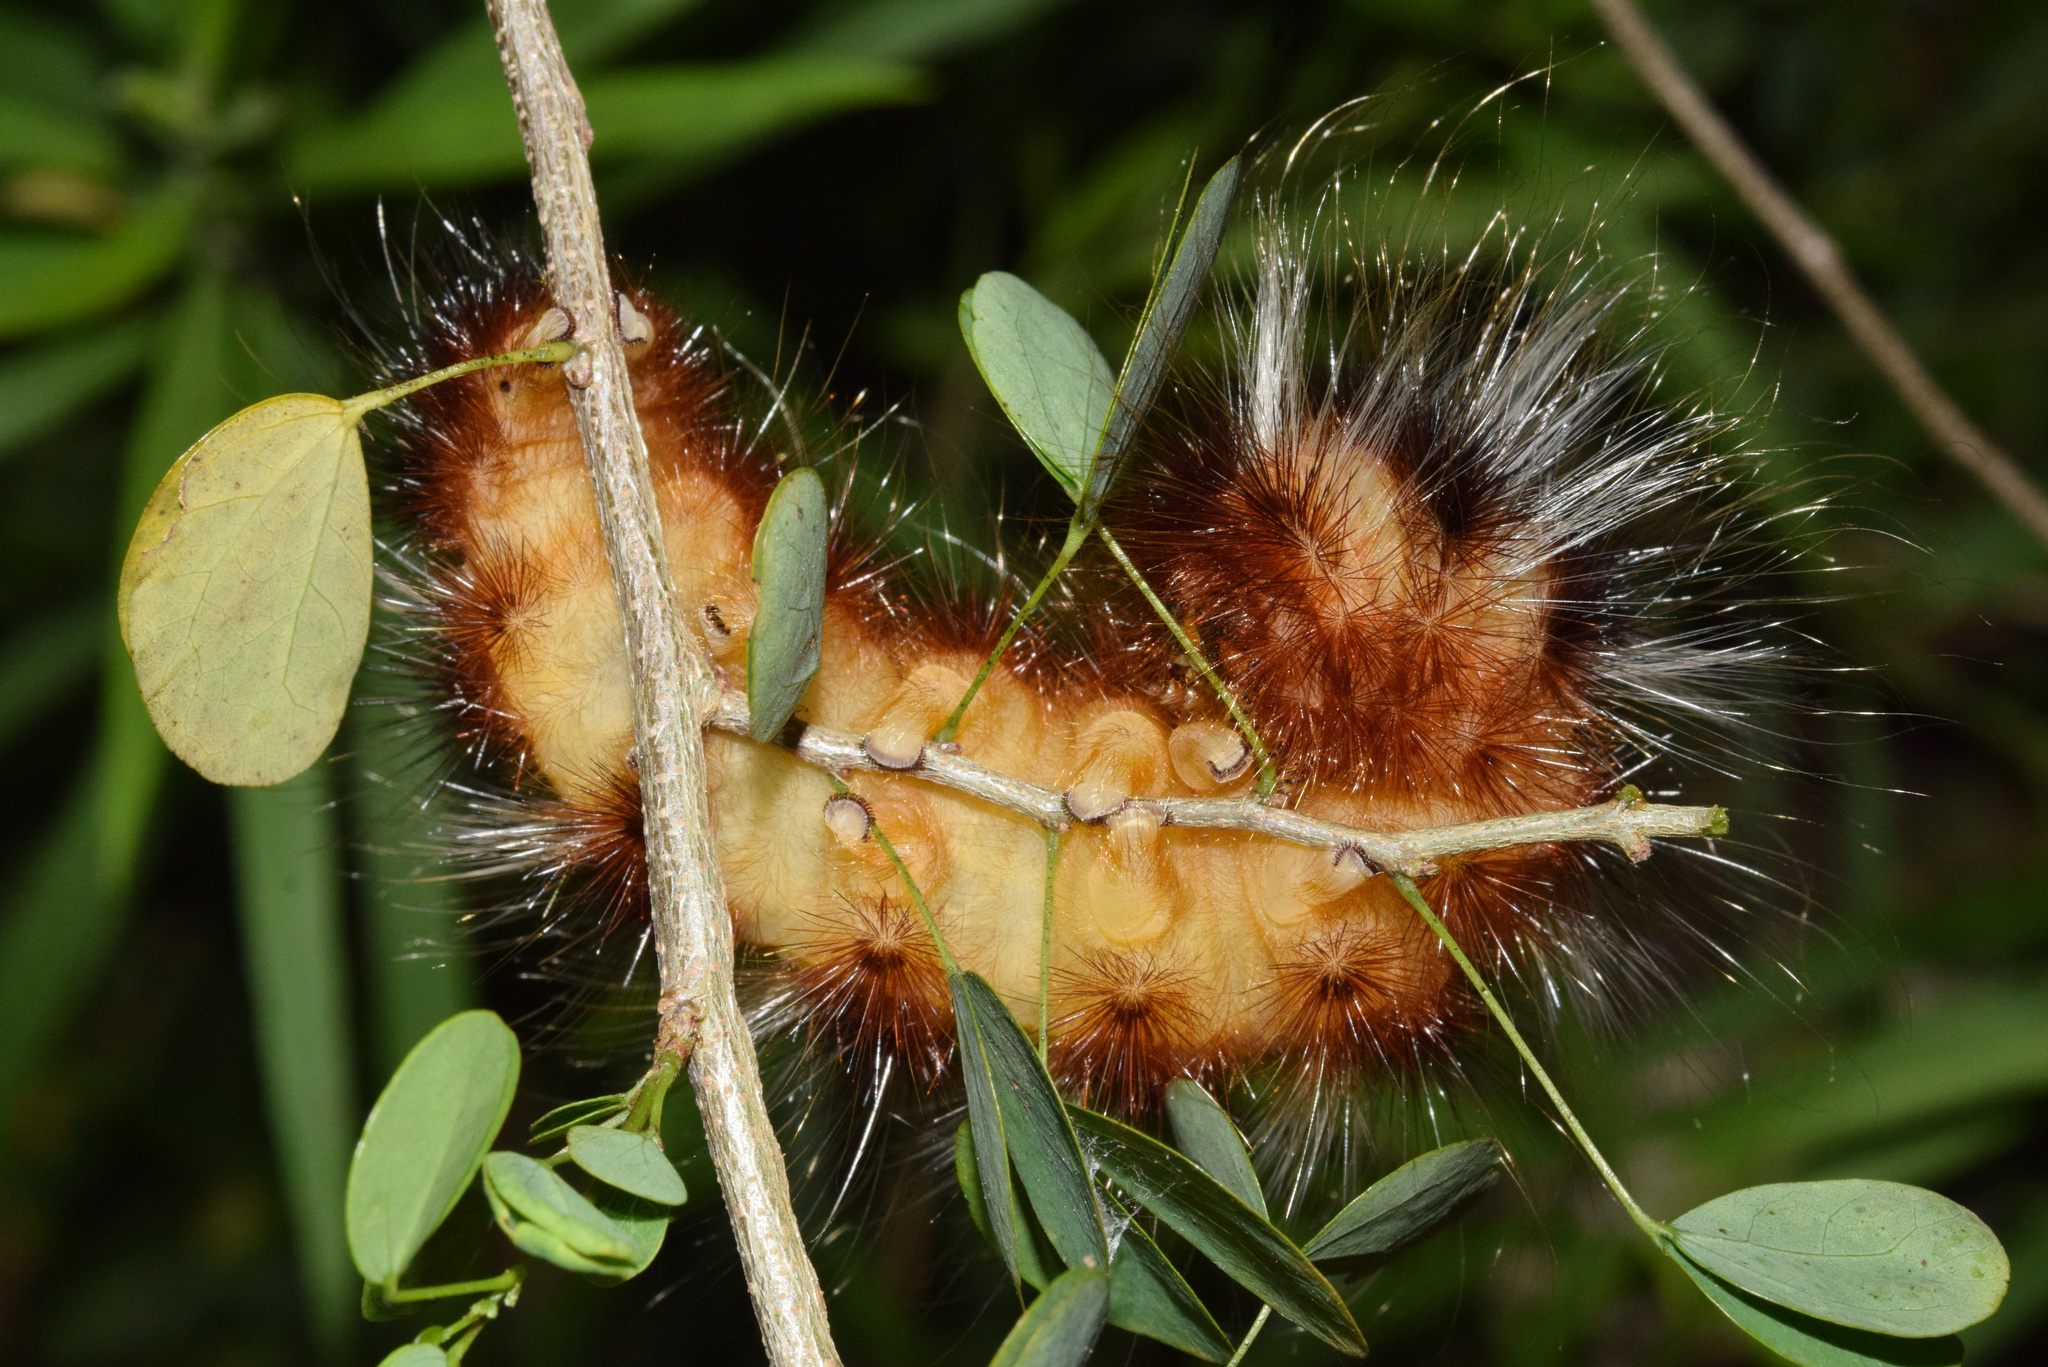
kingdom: Animalia
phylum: Arthropoda
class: Insecta
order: Lepidoptera
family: Eupterotidae
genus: Striphnopteryx
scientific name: Striphnopteryx edulis
